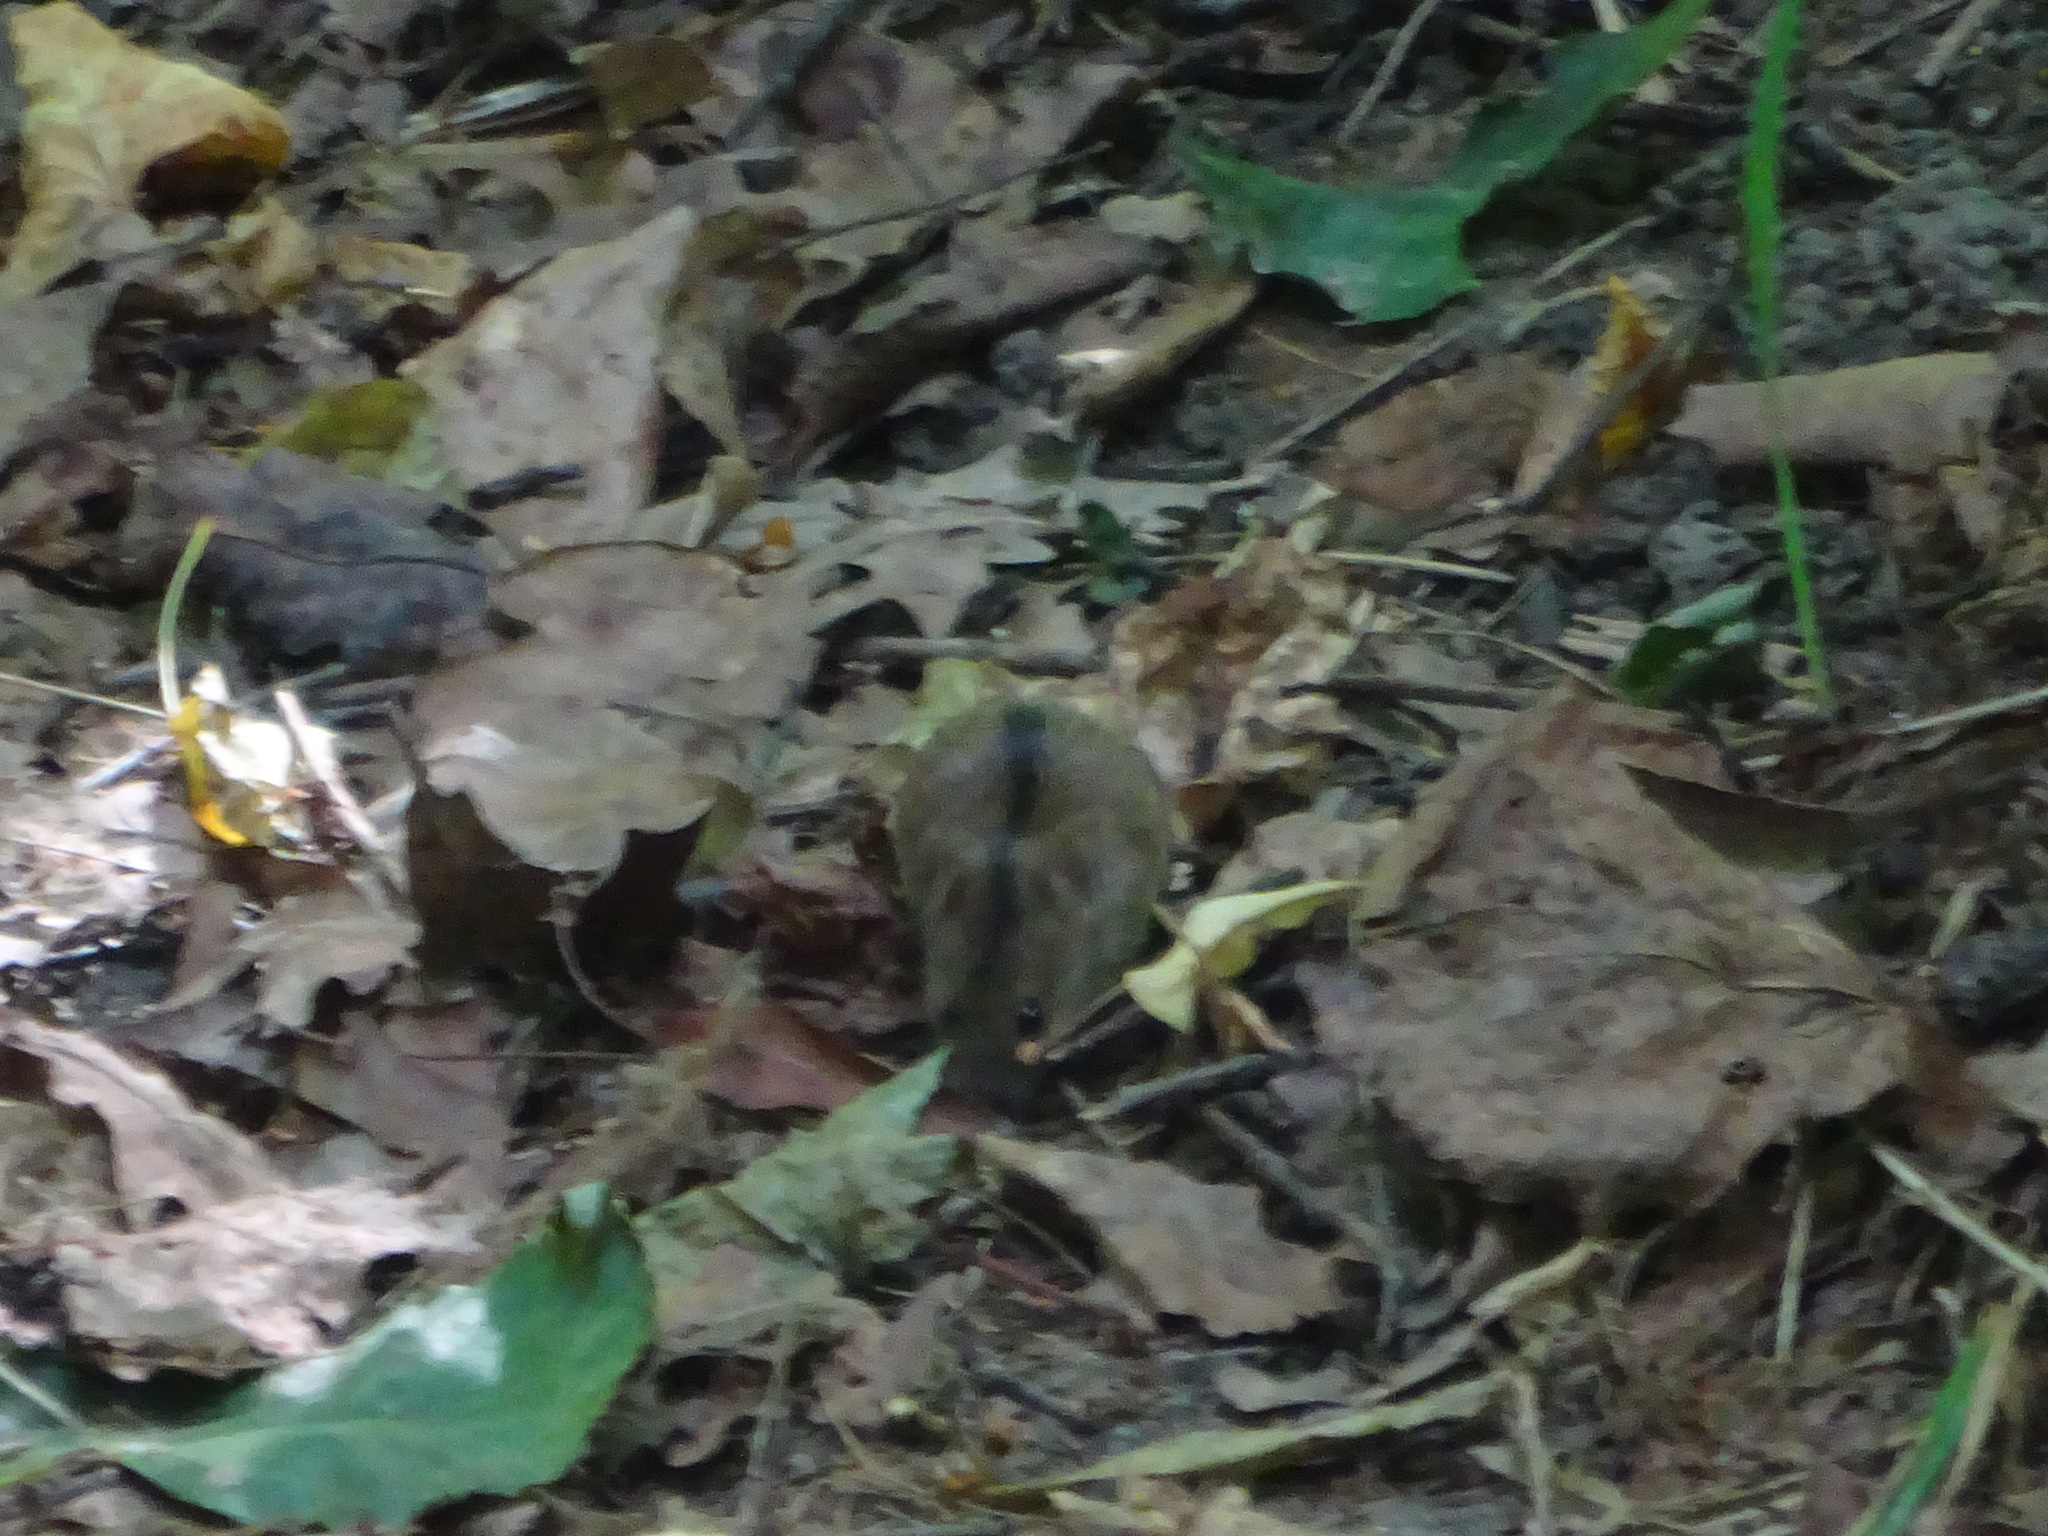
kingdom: Animalia
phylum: Chordata
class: Mammalia
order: Rodentia
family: Muridae
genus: Apodemus
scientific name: Apodemus agrarius
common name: Striped field mouse
